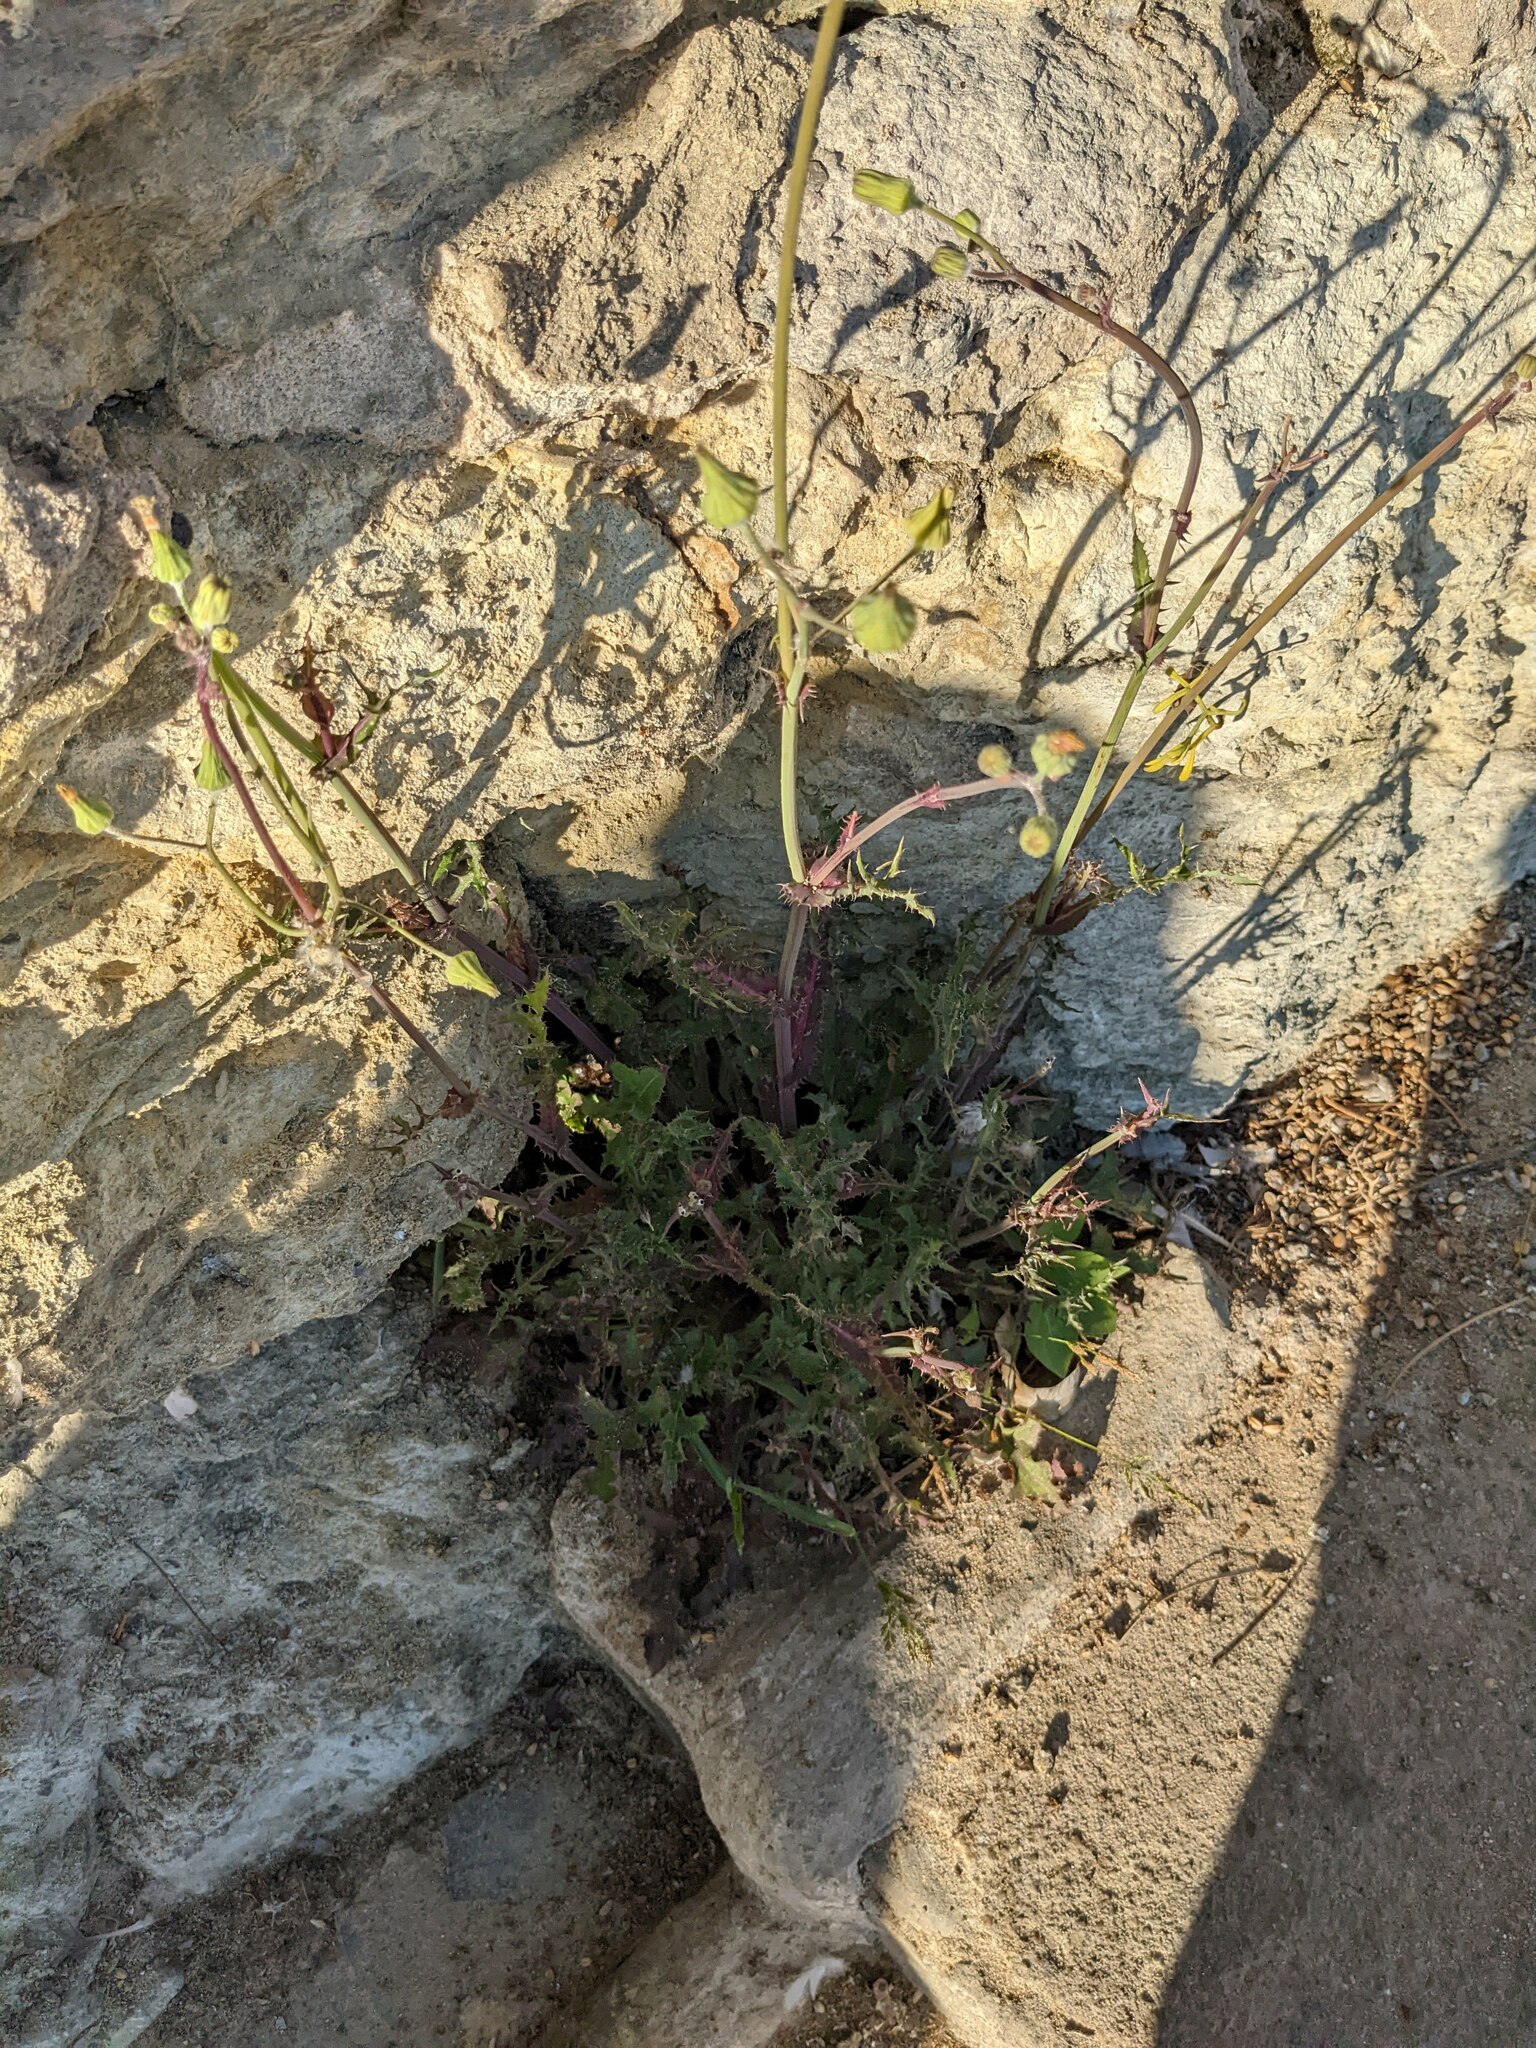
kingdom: Plantae
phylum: Tracheophyta
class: Magnoliopsida
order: Asterales
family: Asteraceae
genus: Sonchus
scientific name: Sonchus oleraceus
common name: Common sowthistle
